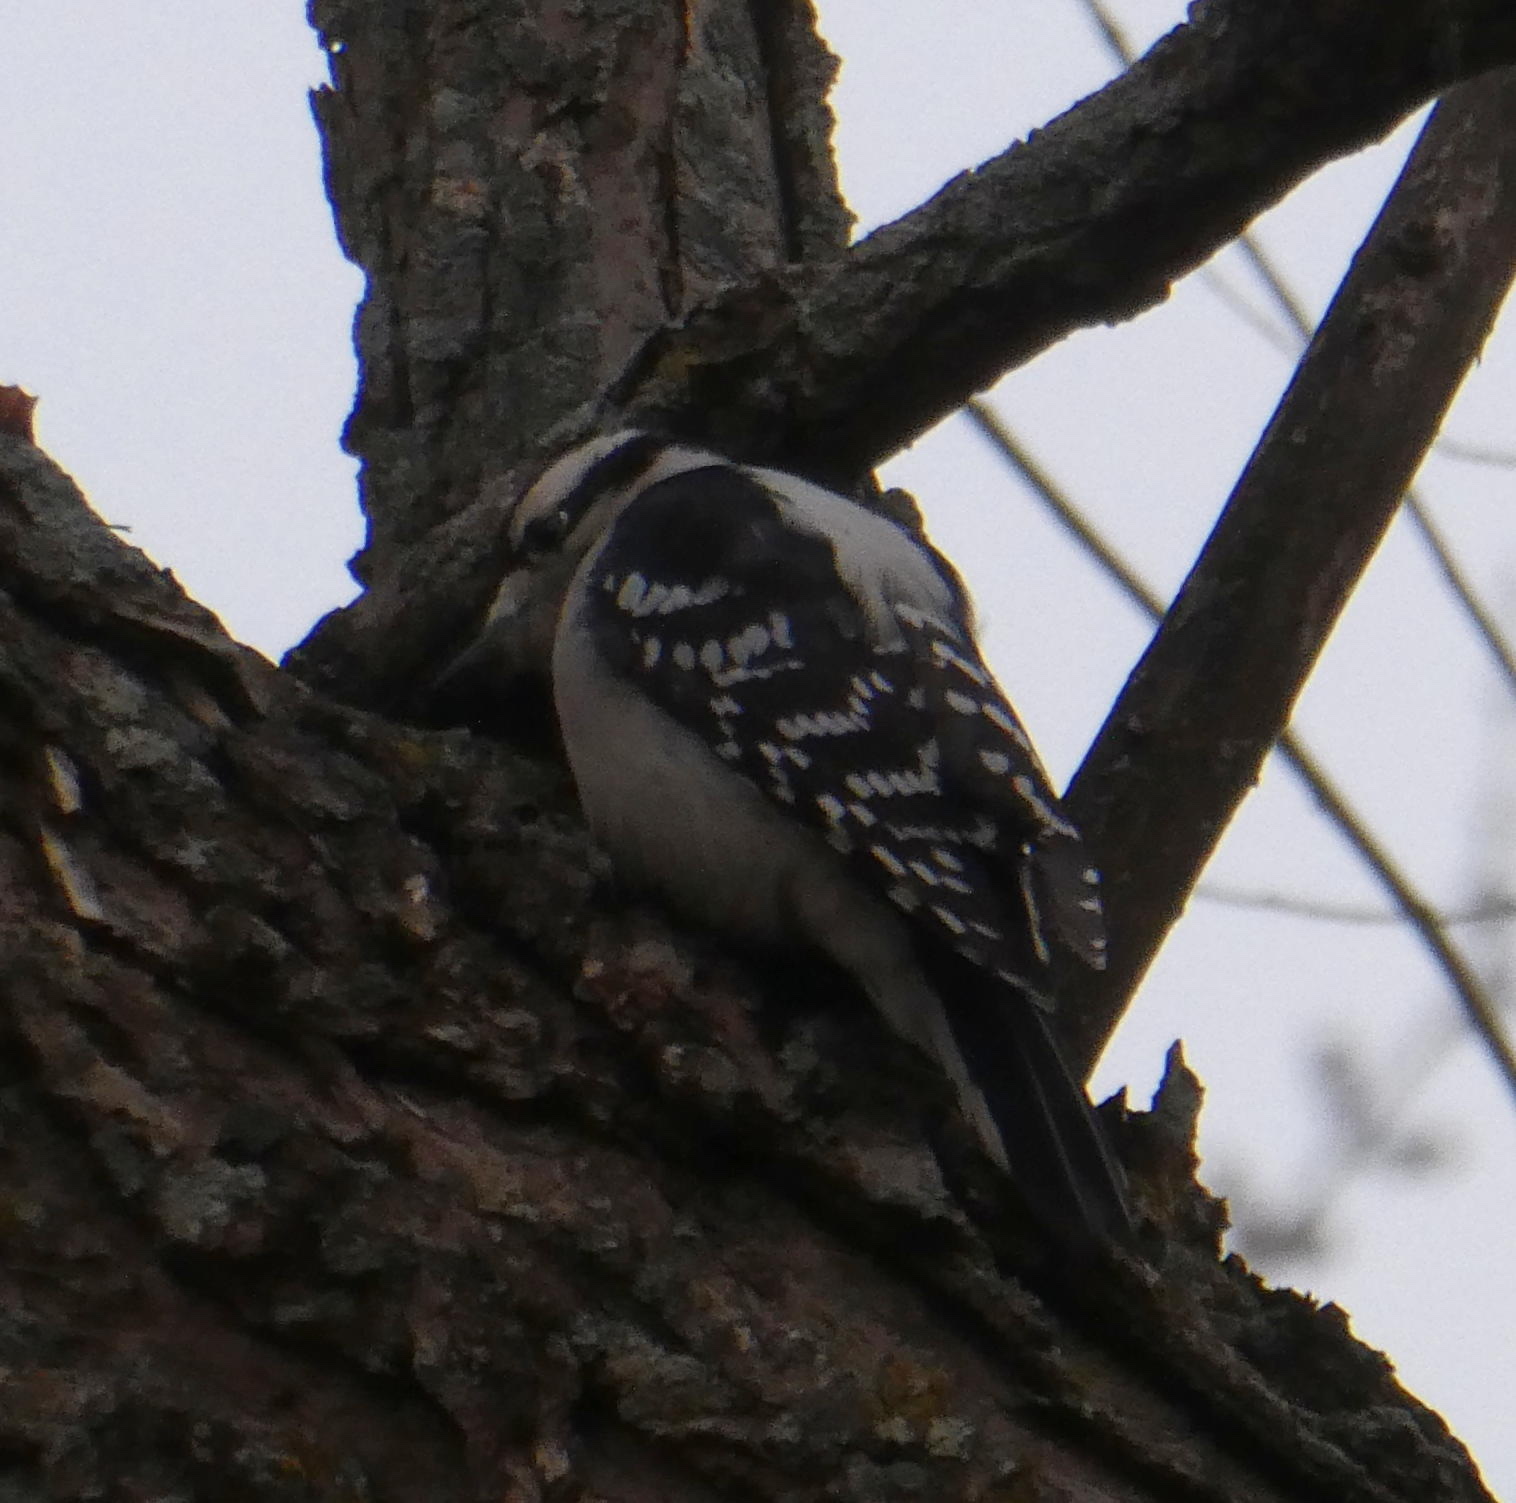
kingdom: Animalia
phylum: Chordata
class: Aves
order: Piciformes
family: Picidae
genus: Dryobates
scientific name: Dryobates pubescens
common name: Downy woodpecker
